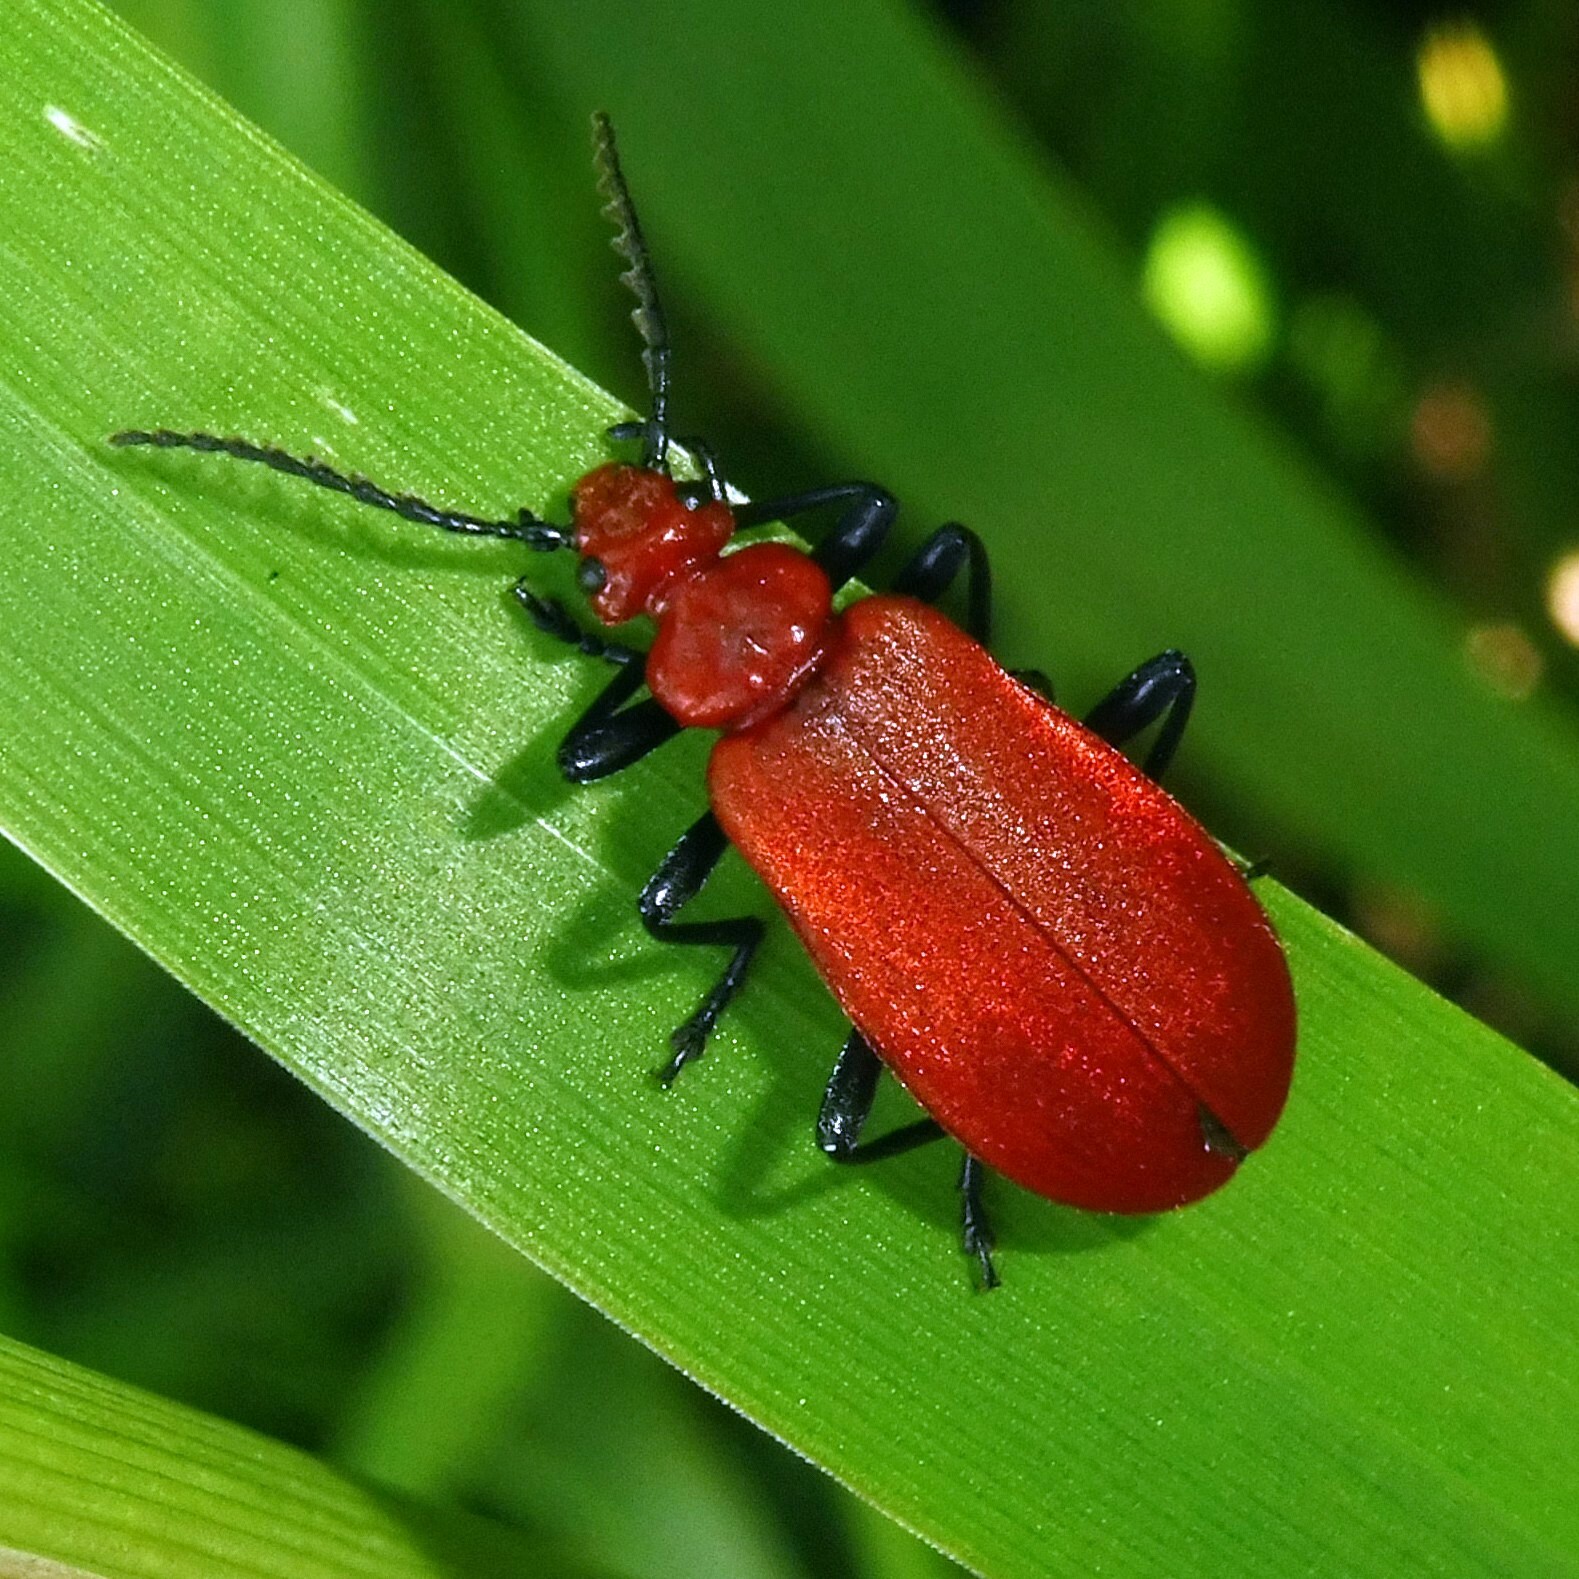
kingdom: Animalia
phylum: Arthropoda
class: Insecta
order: Coleoptera
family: Pyrochroidae
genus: Pyrochroa
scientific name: Pyrochroa serraticornis
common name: Red-headed cardinal beetle
